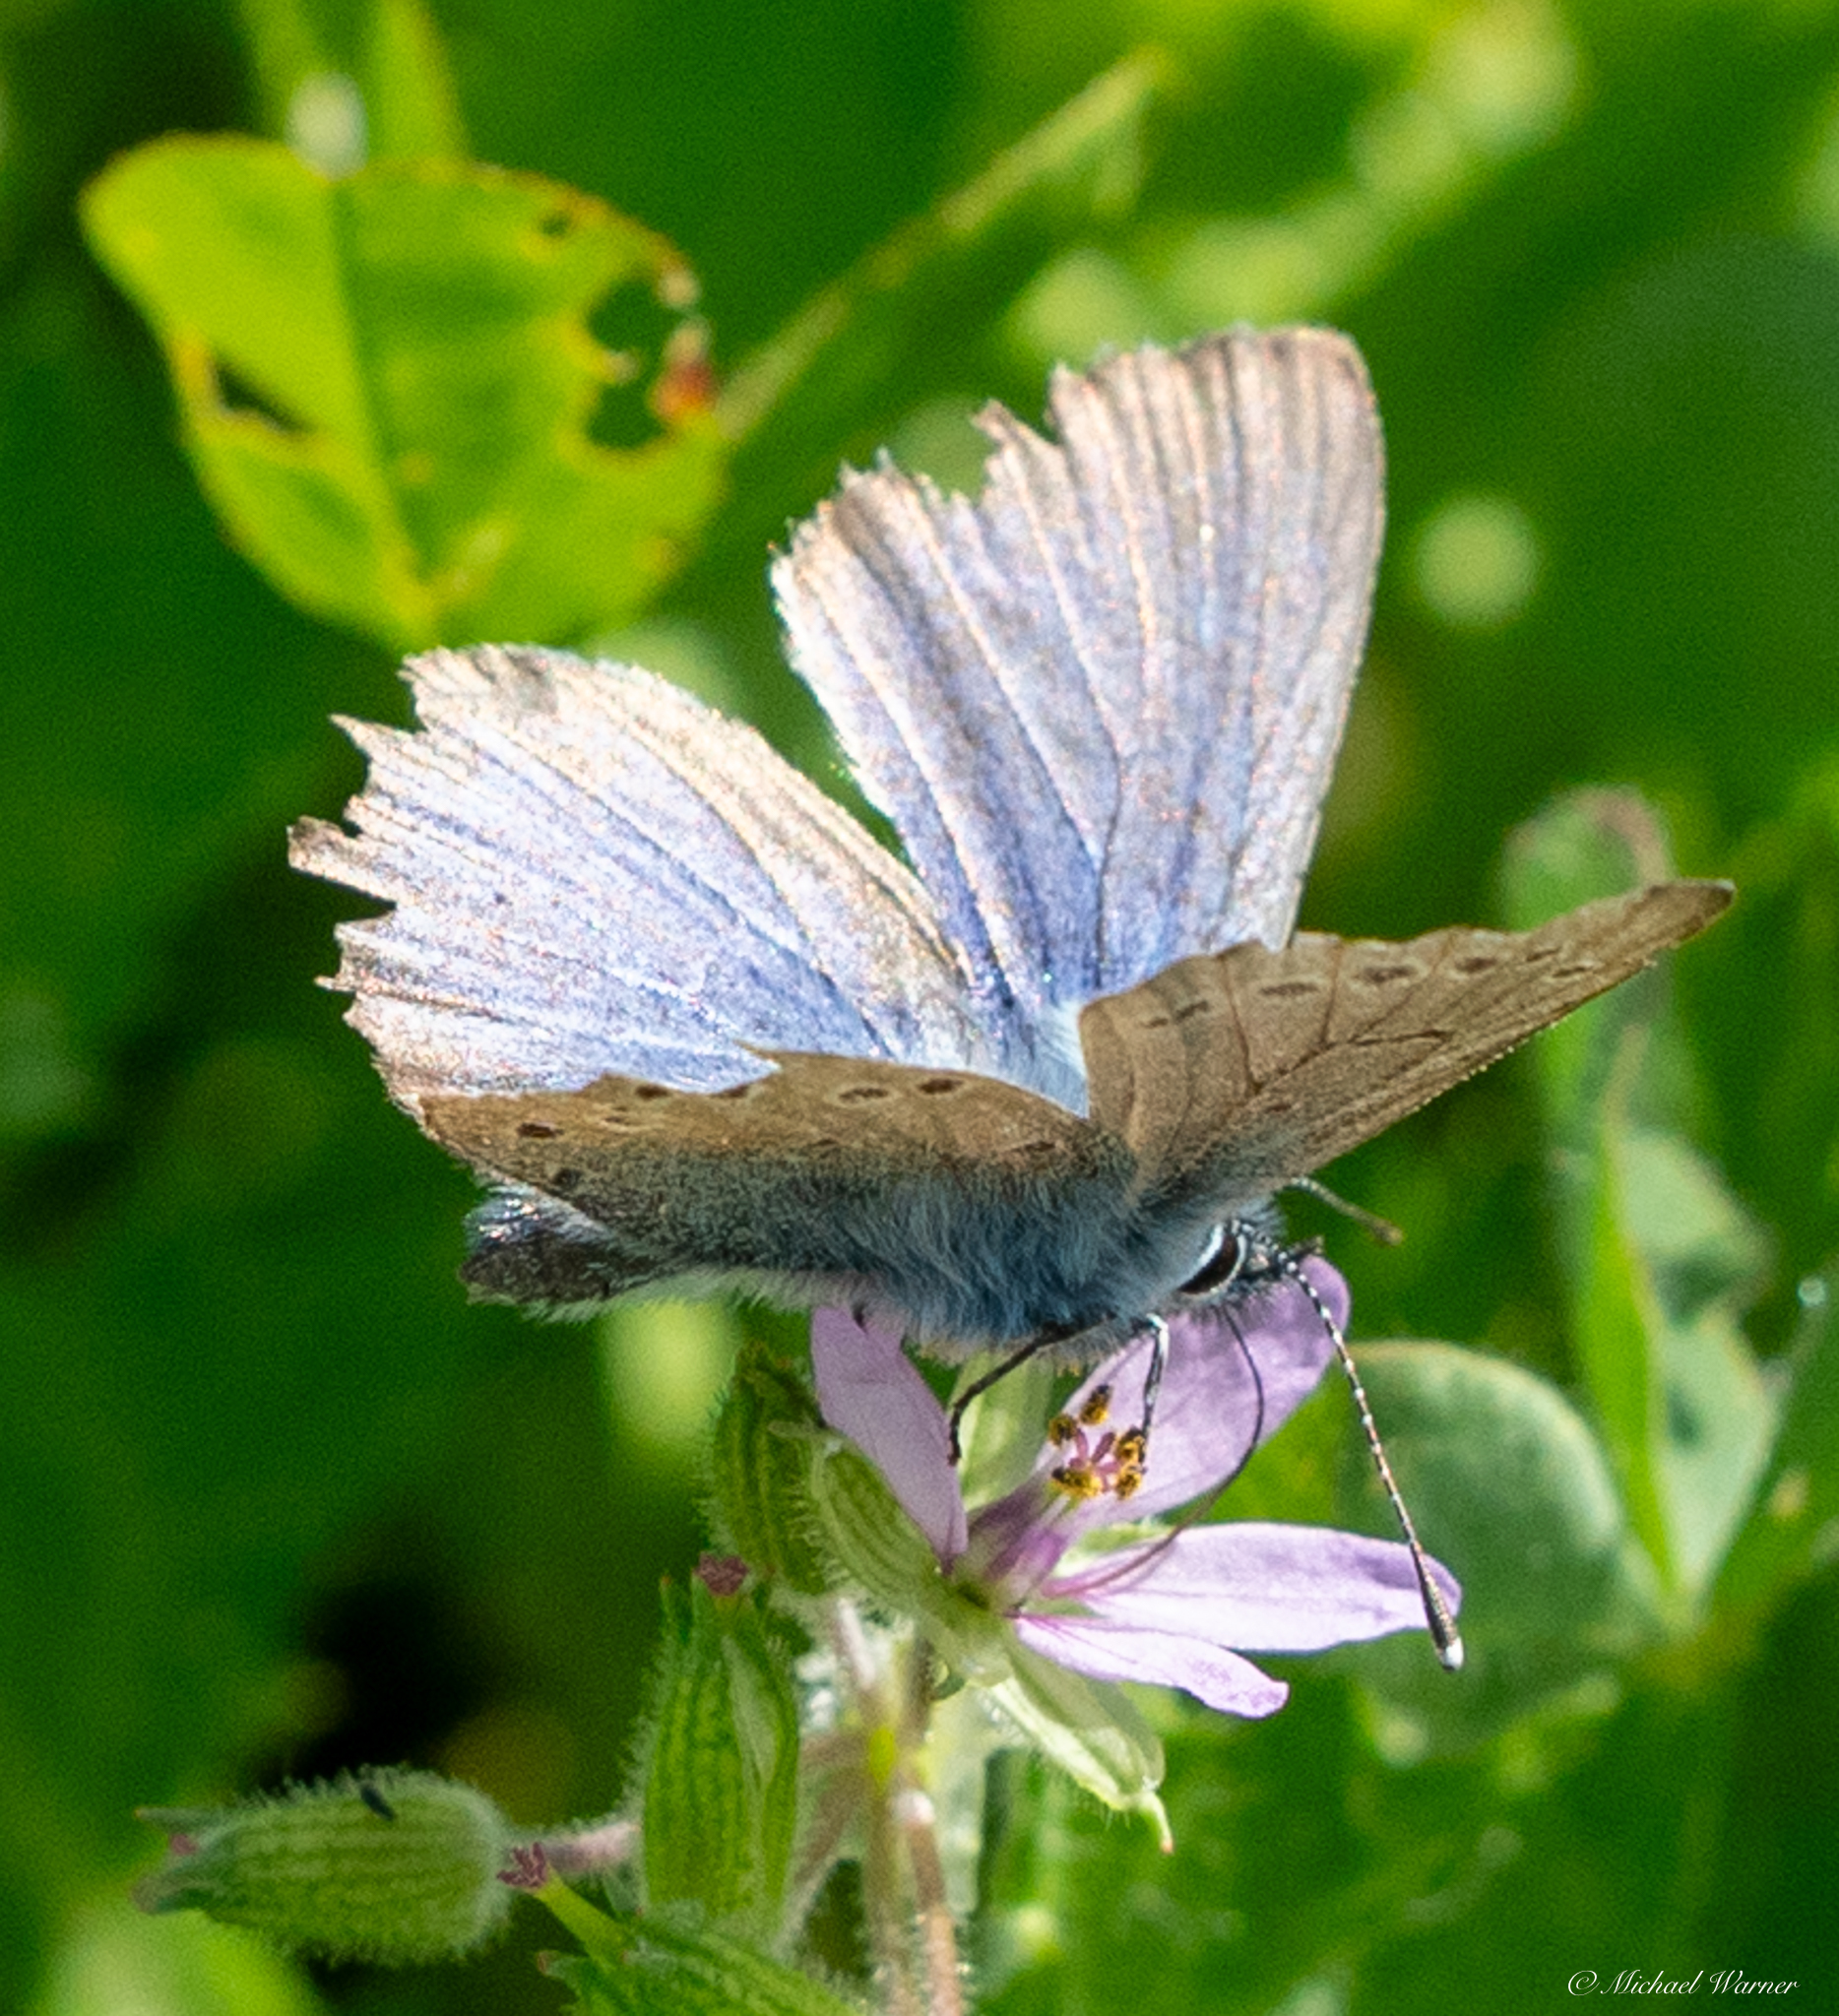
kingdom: Animalia
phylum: Arthropoda
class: Insecta
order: Lepidoptera
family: Lycaenidae
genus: Glaucopsyche
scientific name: Glaucopsyche lygdamus
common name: Silvery blue
